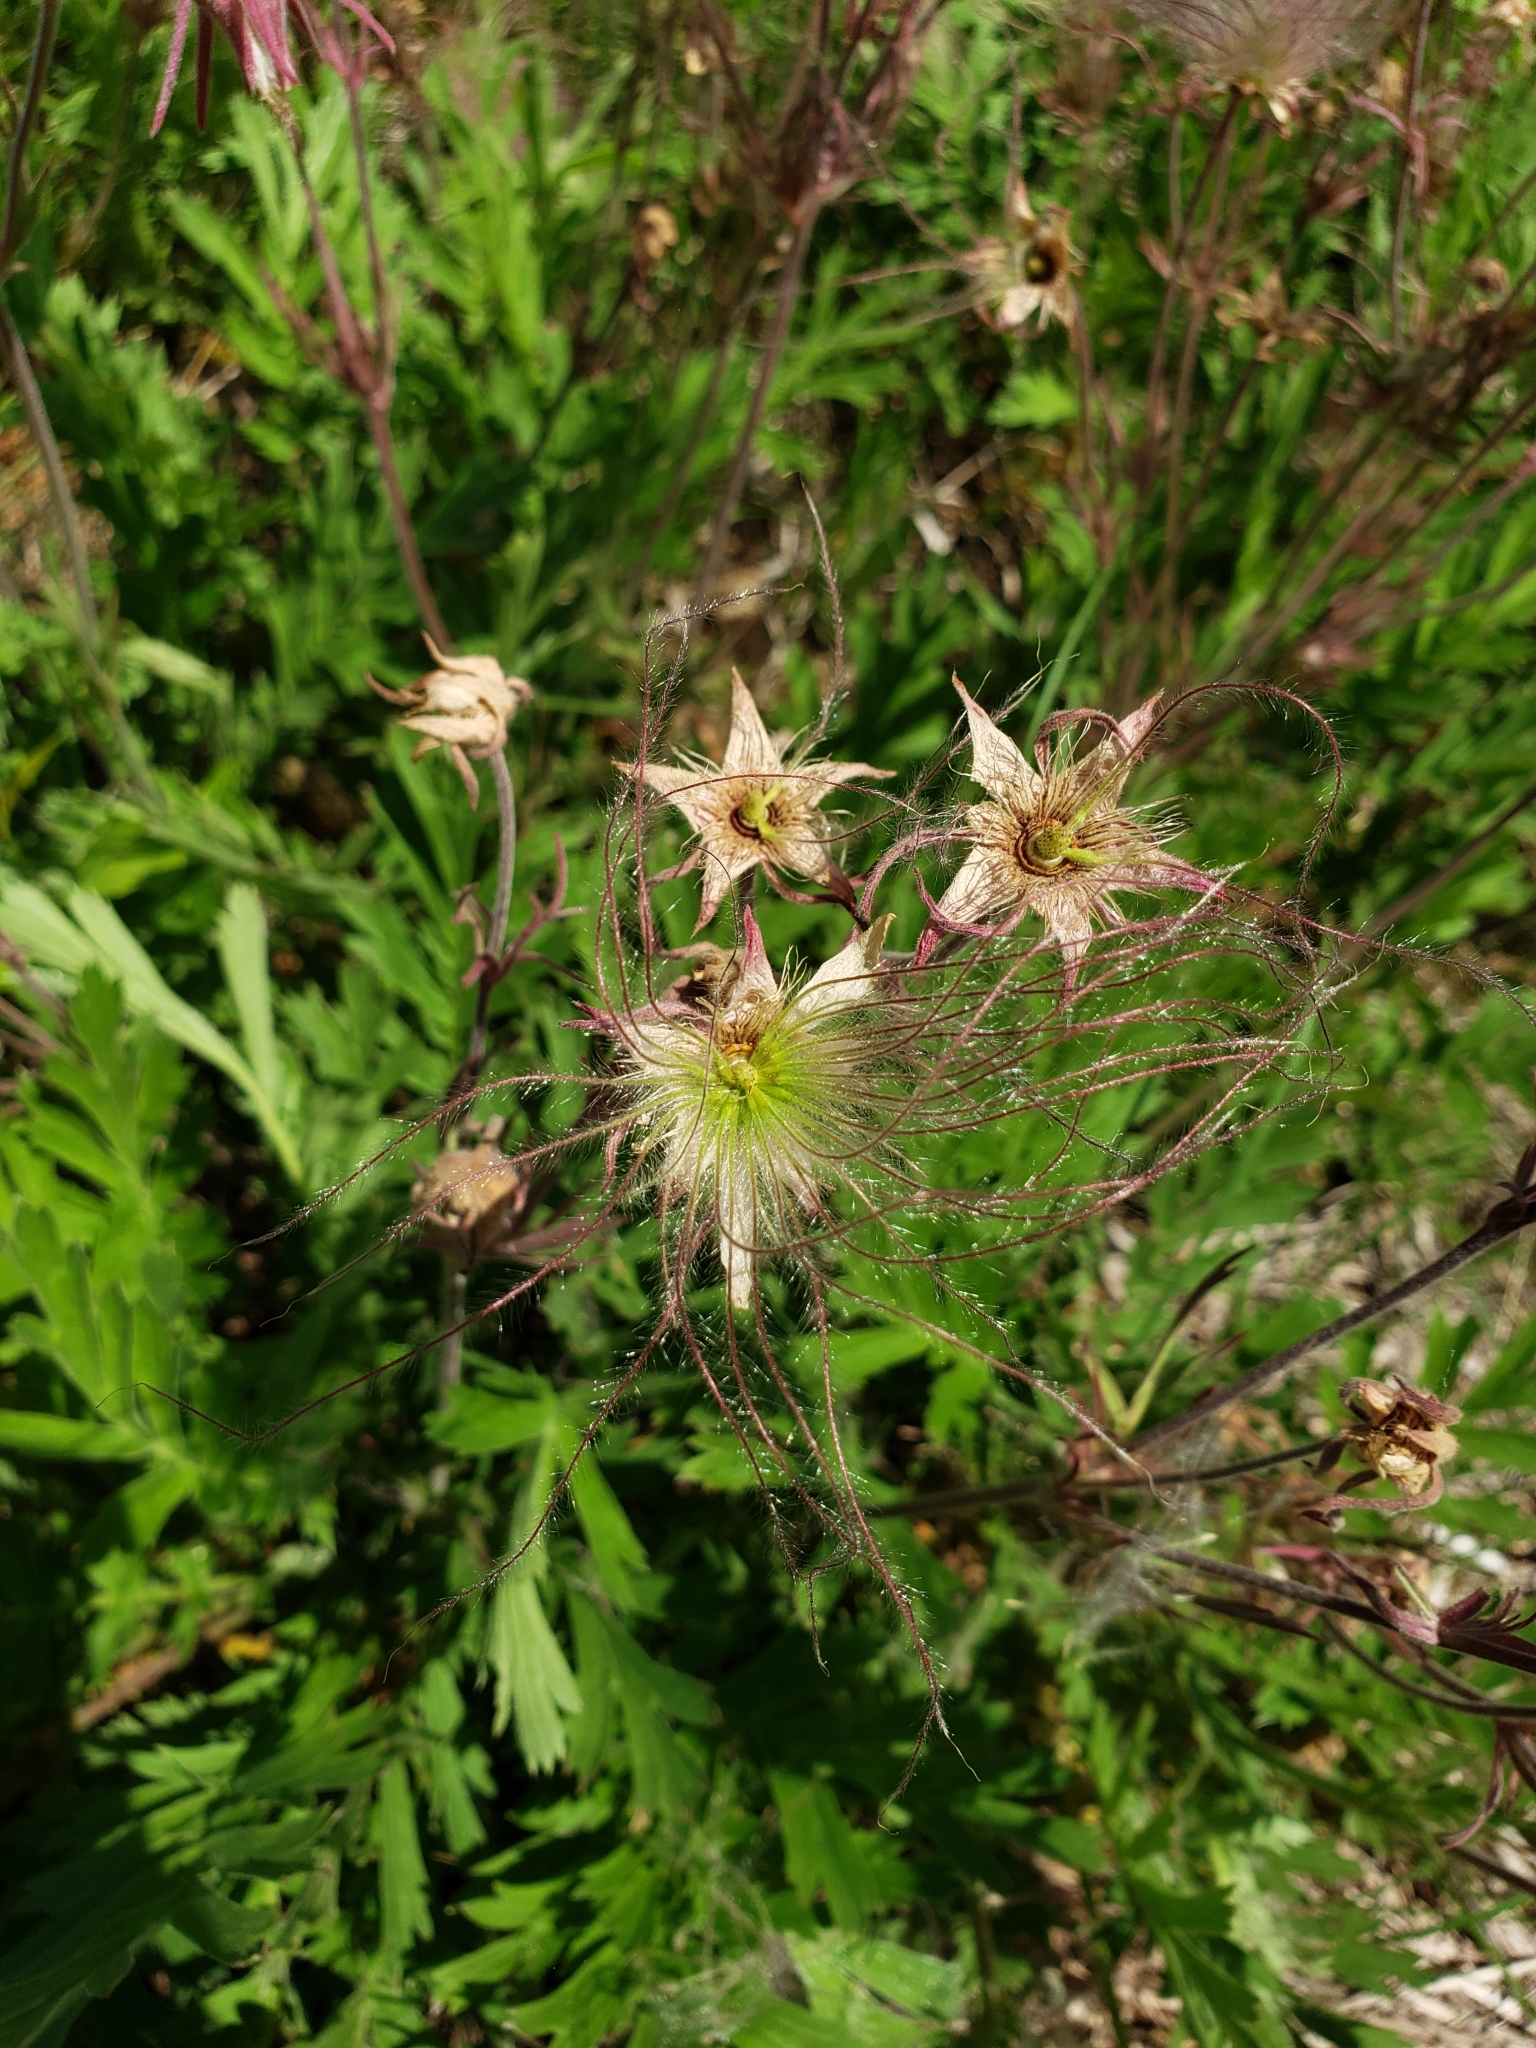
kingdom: Plantae
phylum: Tracheophyta
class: Magnoliopsida
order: Rosales
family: Rosaceae
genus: Geum
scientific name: Geum triflorum
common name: Old man's whiskers
